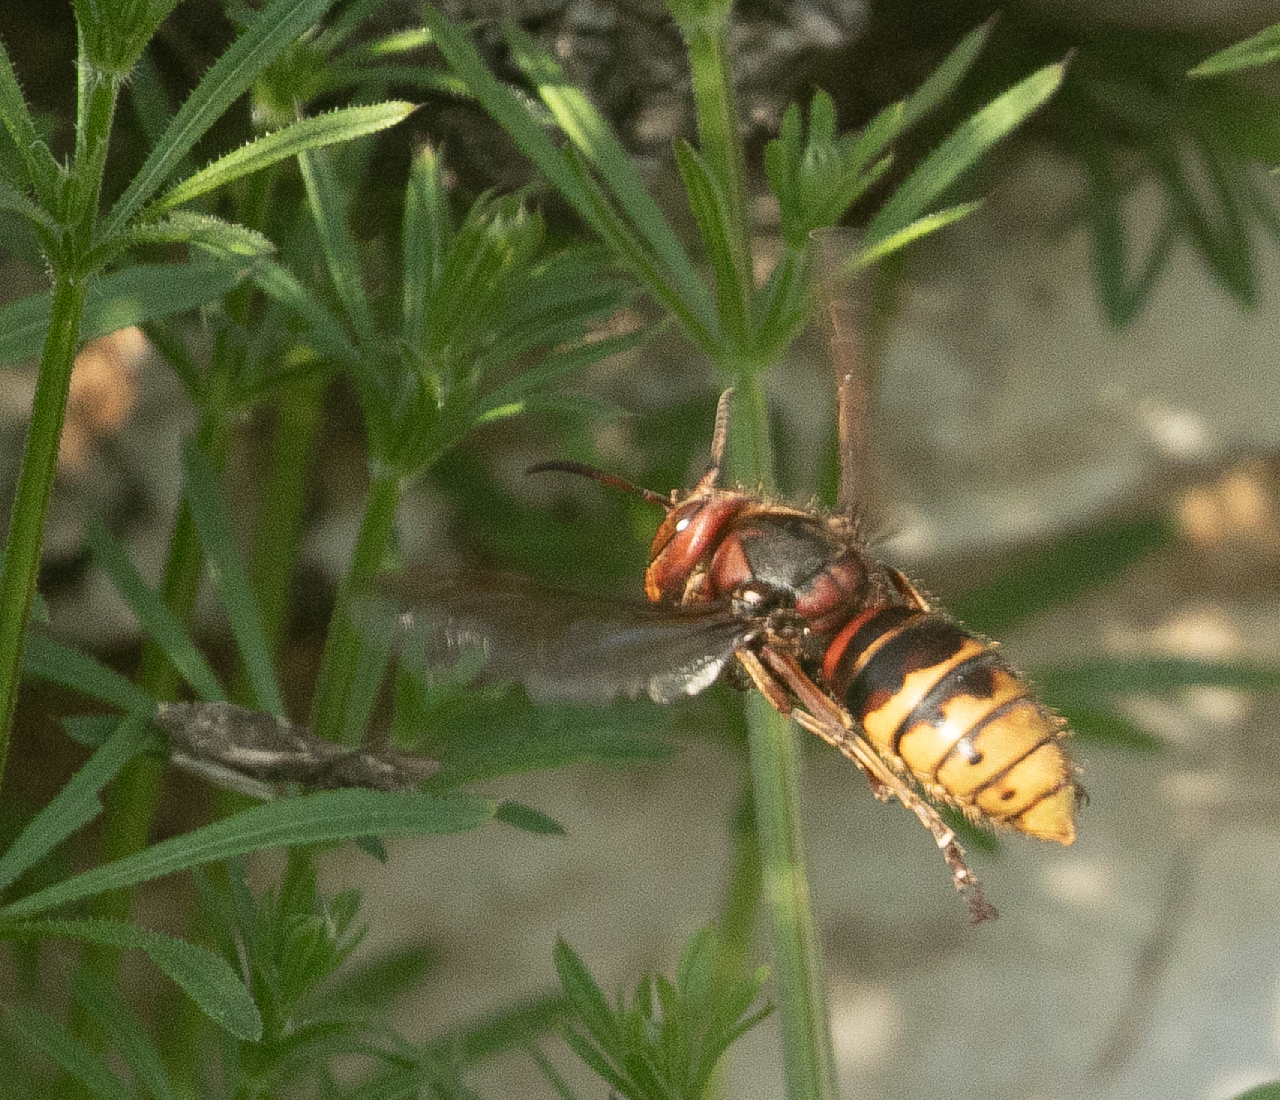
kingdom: Animalia
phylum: Arthropoda
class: Insecta
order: Hymenoptera
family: Vespidae
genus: Vespa
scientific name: Vespa crabro
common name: Hornet
